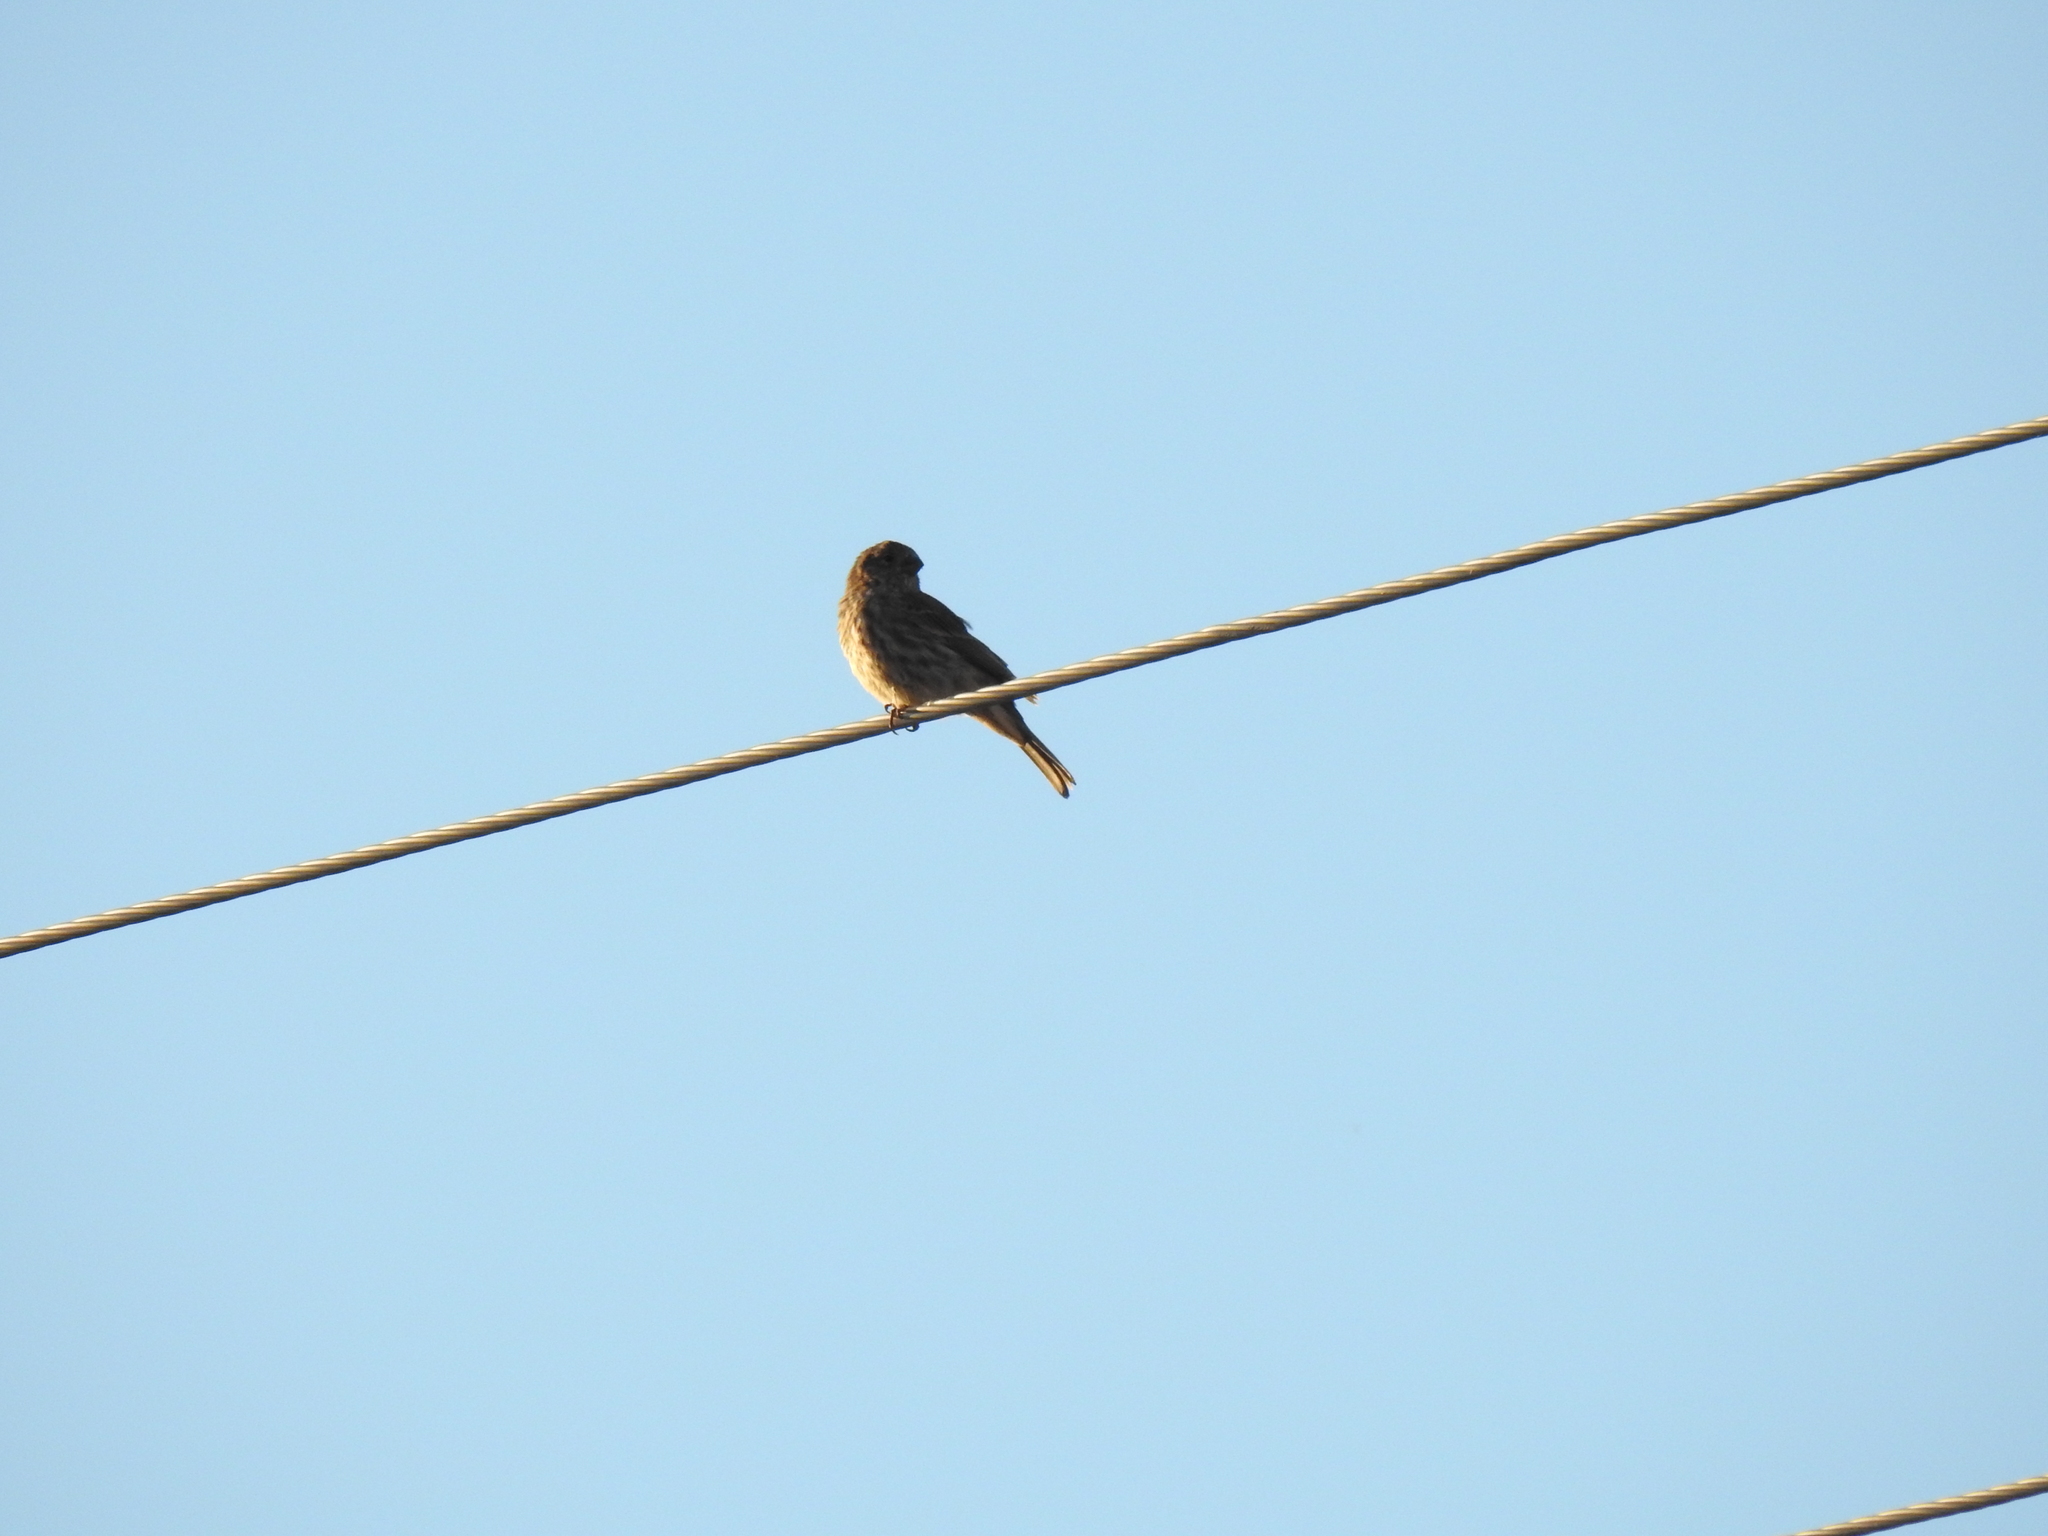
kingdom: Animalia
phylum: Chordata
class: Aves
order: Passeriformes
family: Fringillidae
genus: Haemorhous
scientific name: Haemorhous mexicanus
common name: House finch
